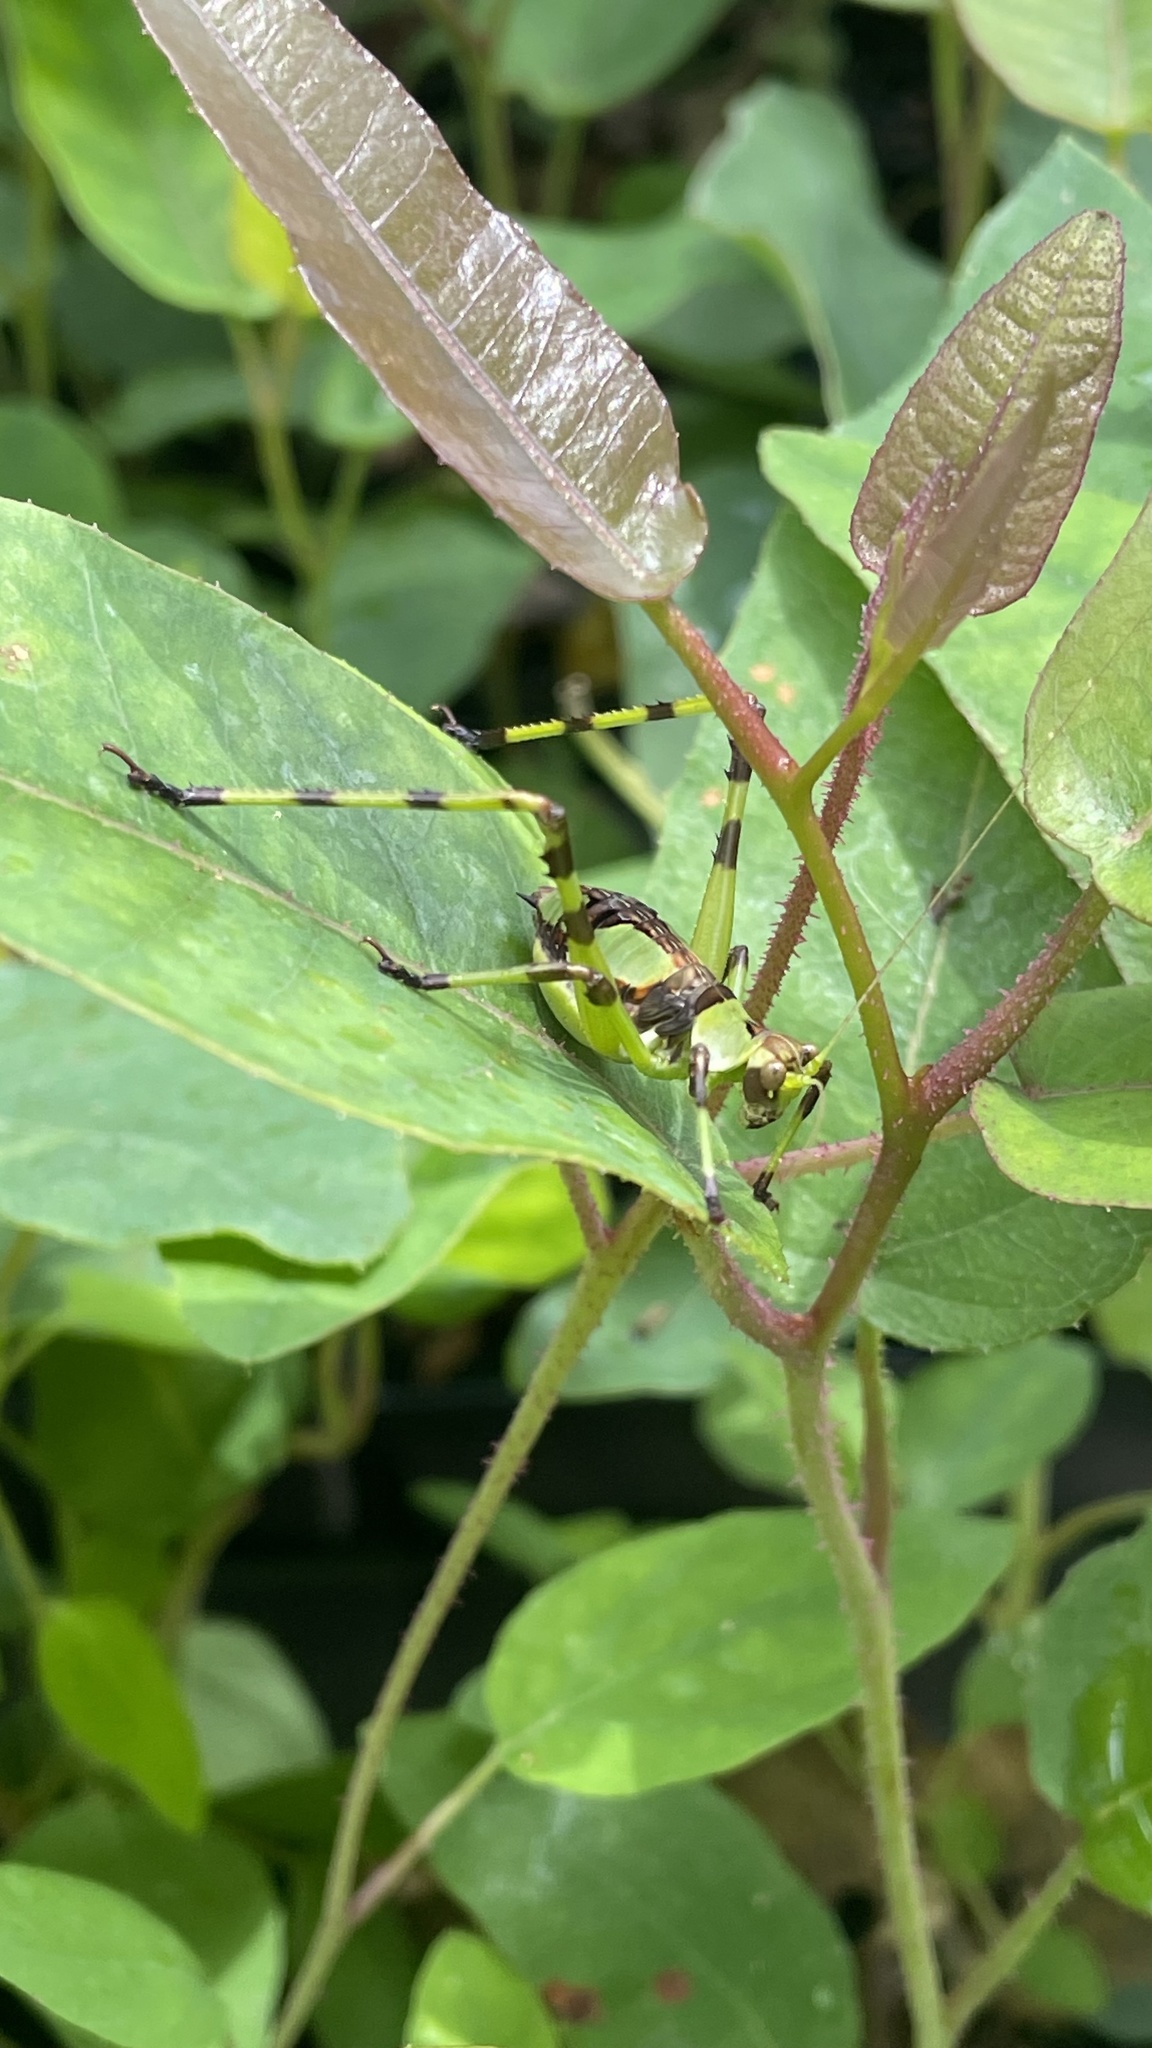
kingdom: Animalia
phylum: Arthropoda
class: Insecta
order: Orthoptera
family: Tettigoniidae
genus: Ephippitytha
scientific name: Ephippitytha trigintiduoguttata
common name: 32-spotted katydid
